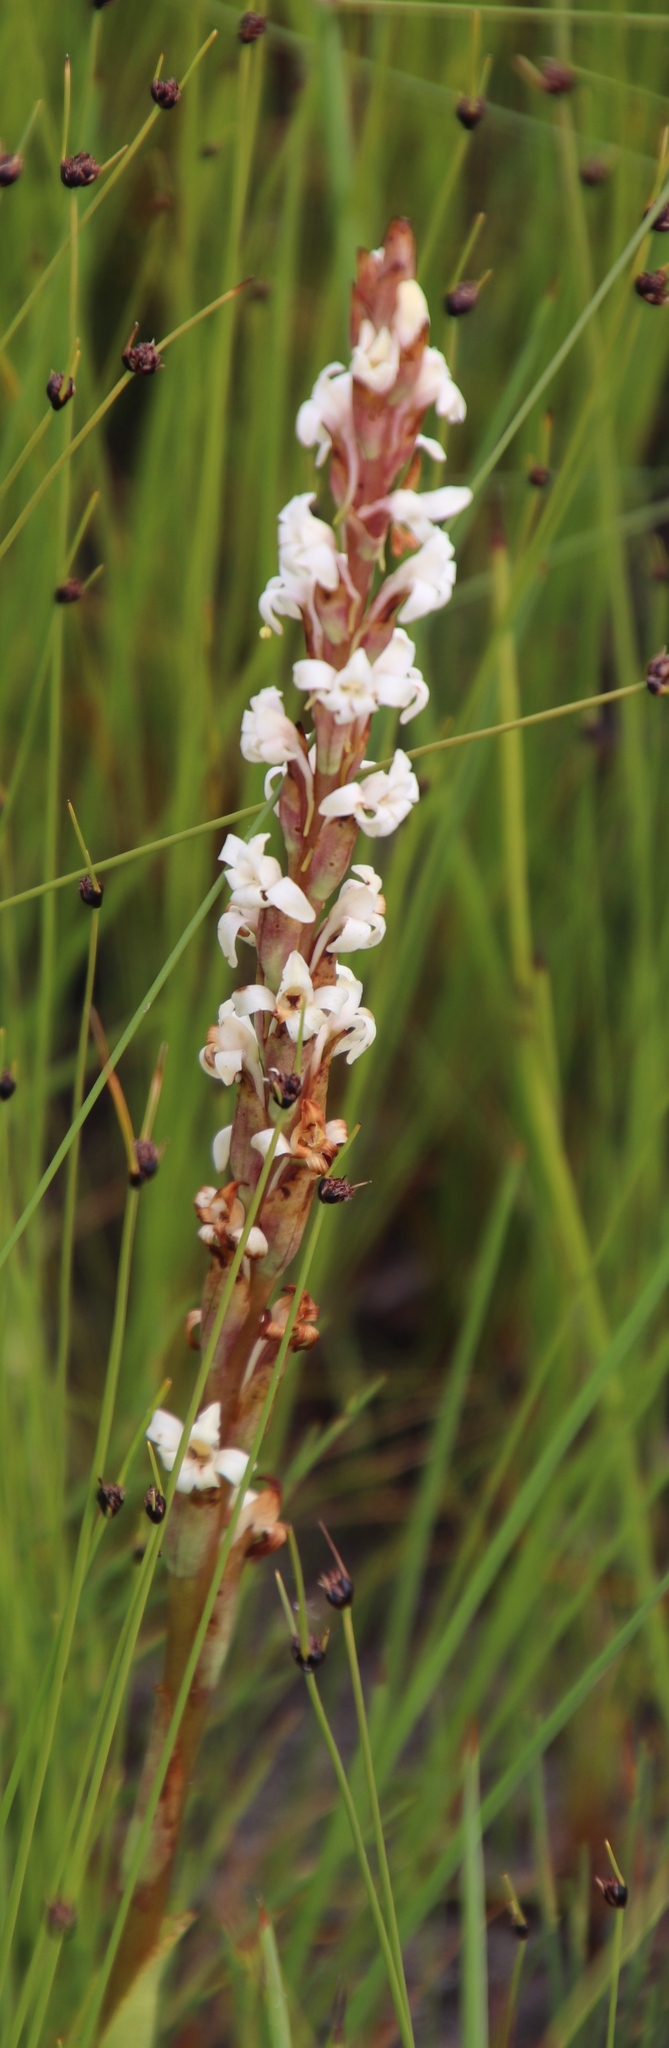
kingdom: Plantae
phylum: Tracheophyta
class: Liliopsida
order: Asparagales
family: Orchidaceae
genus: Satyrium
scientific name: Satyrium stenopetalum
